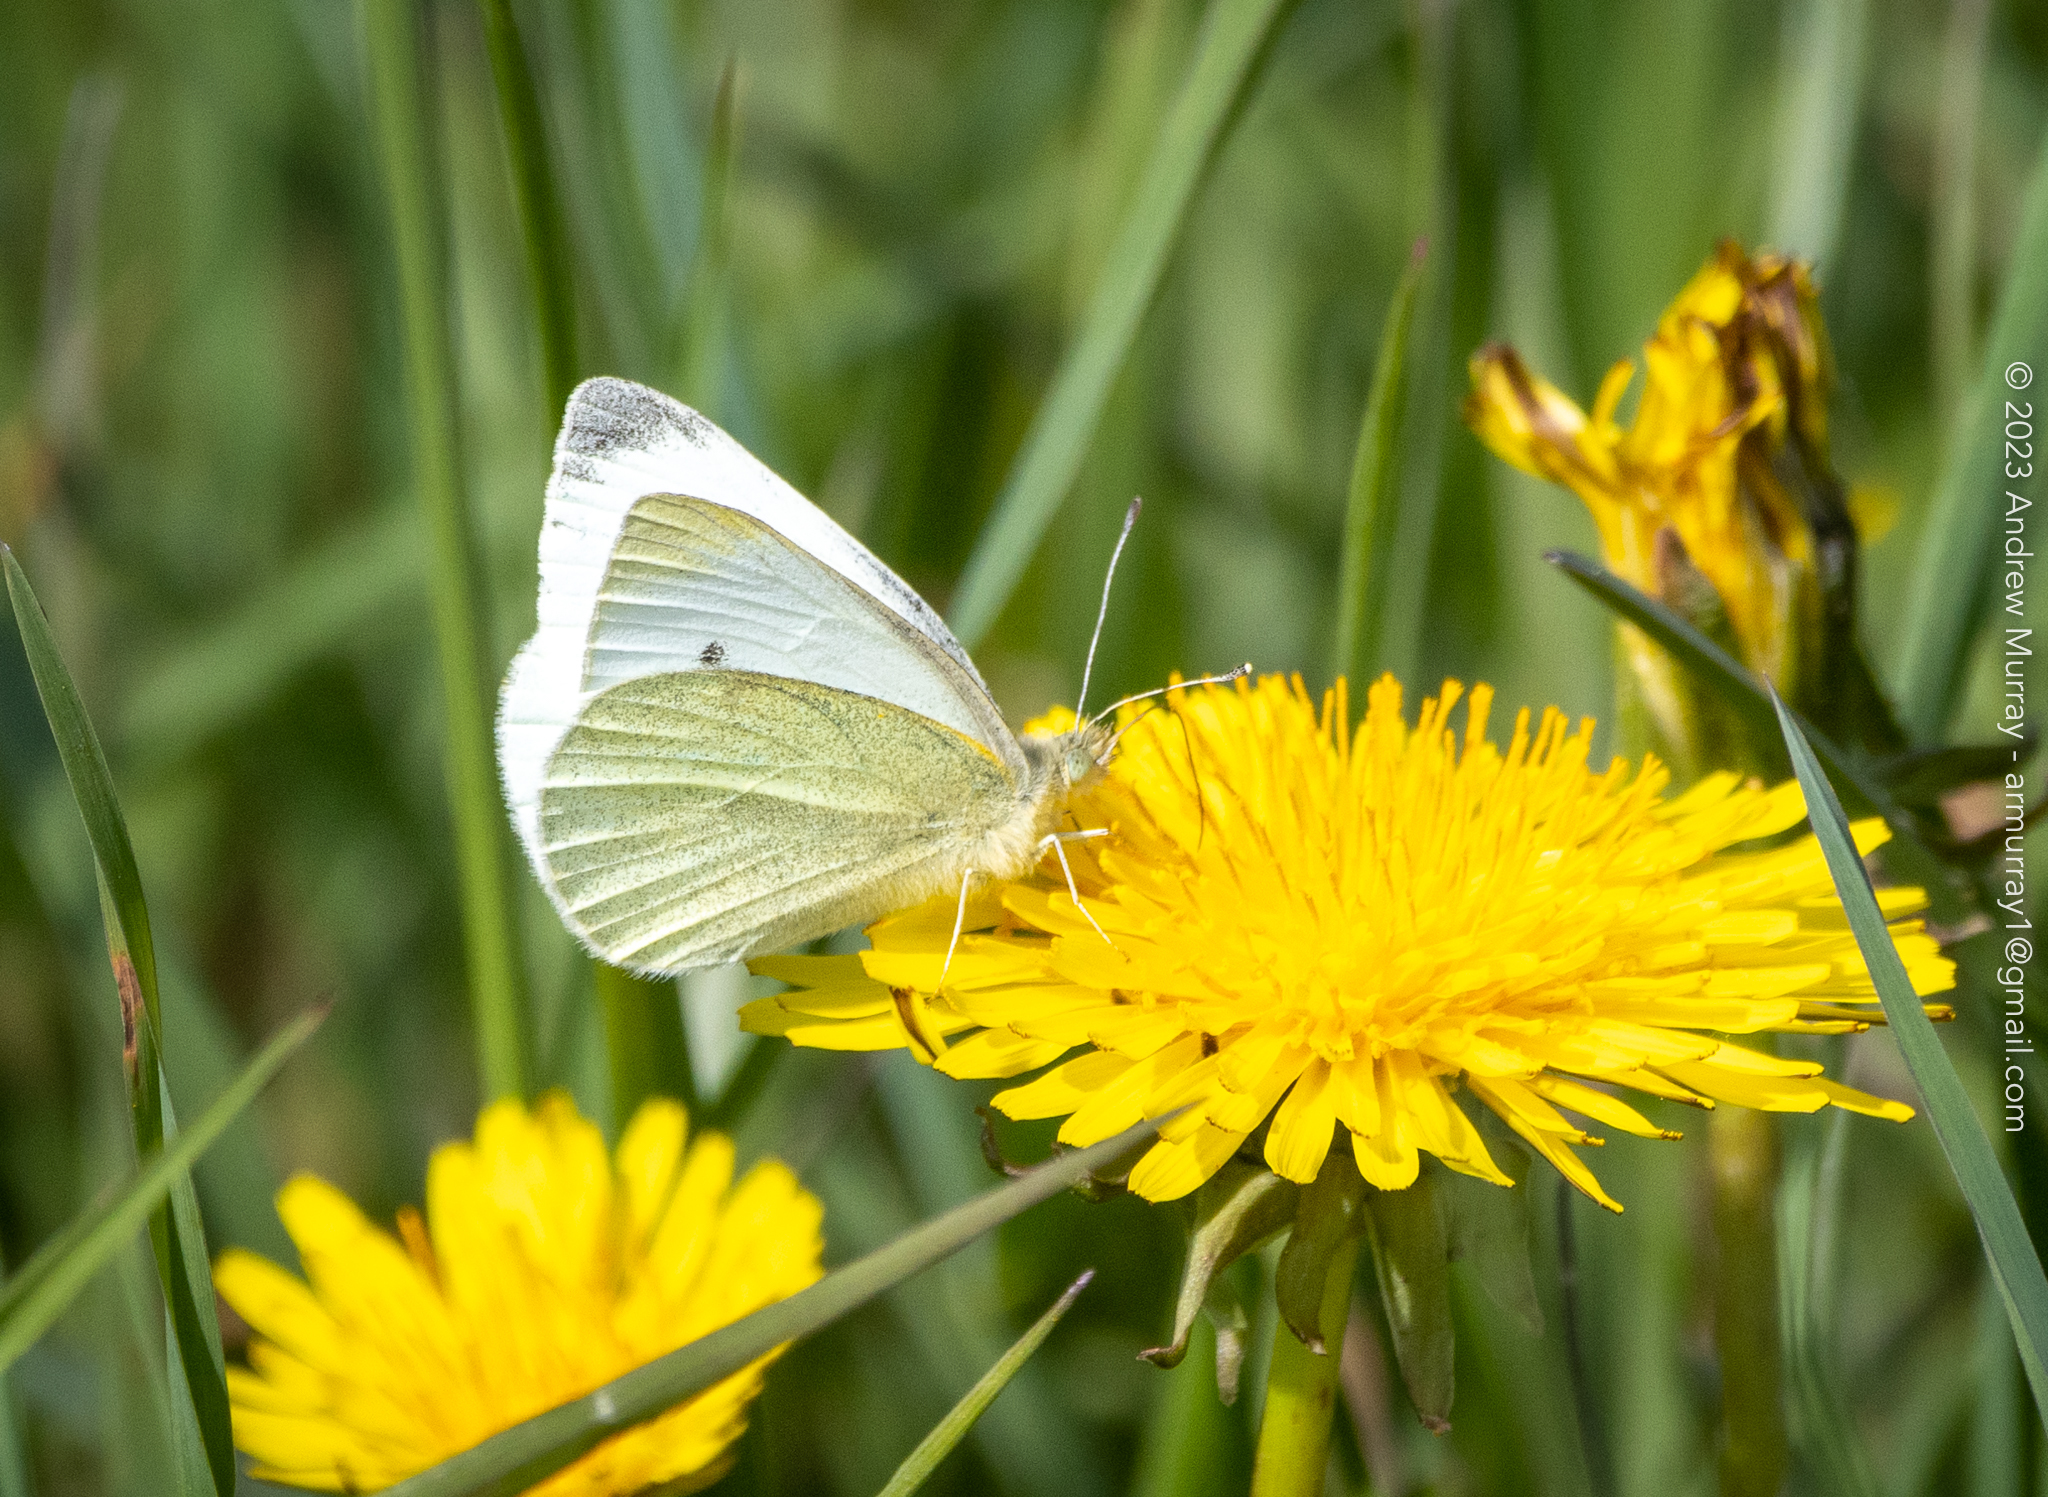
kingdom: Animalia
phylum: Arthropoda
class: Insecta
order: Lepidoptera
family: Pieridae
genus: Pieris
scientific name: Pieris rapae
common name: Small white
